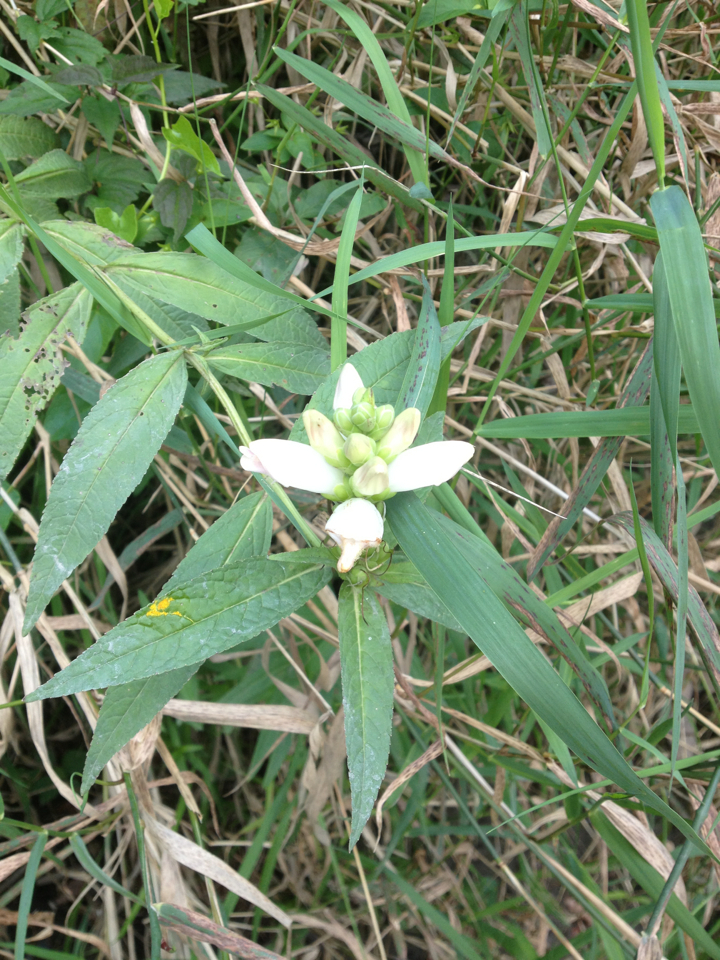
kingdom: Plantae
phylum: Tracheophyta
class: Magnoliopsida
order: Lamiales
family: Plantaginaceae
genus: Chelone
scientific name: Chelone glabra
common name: Snakehead
